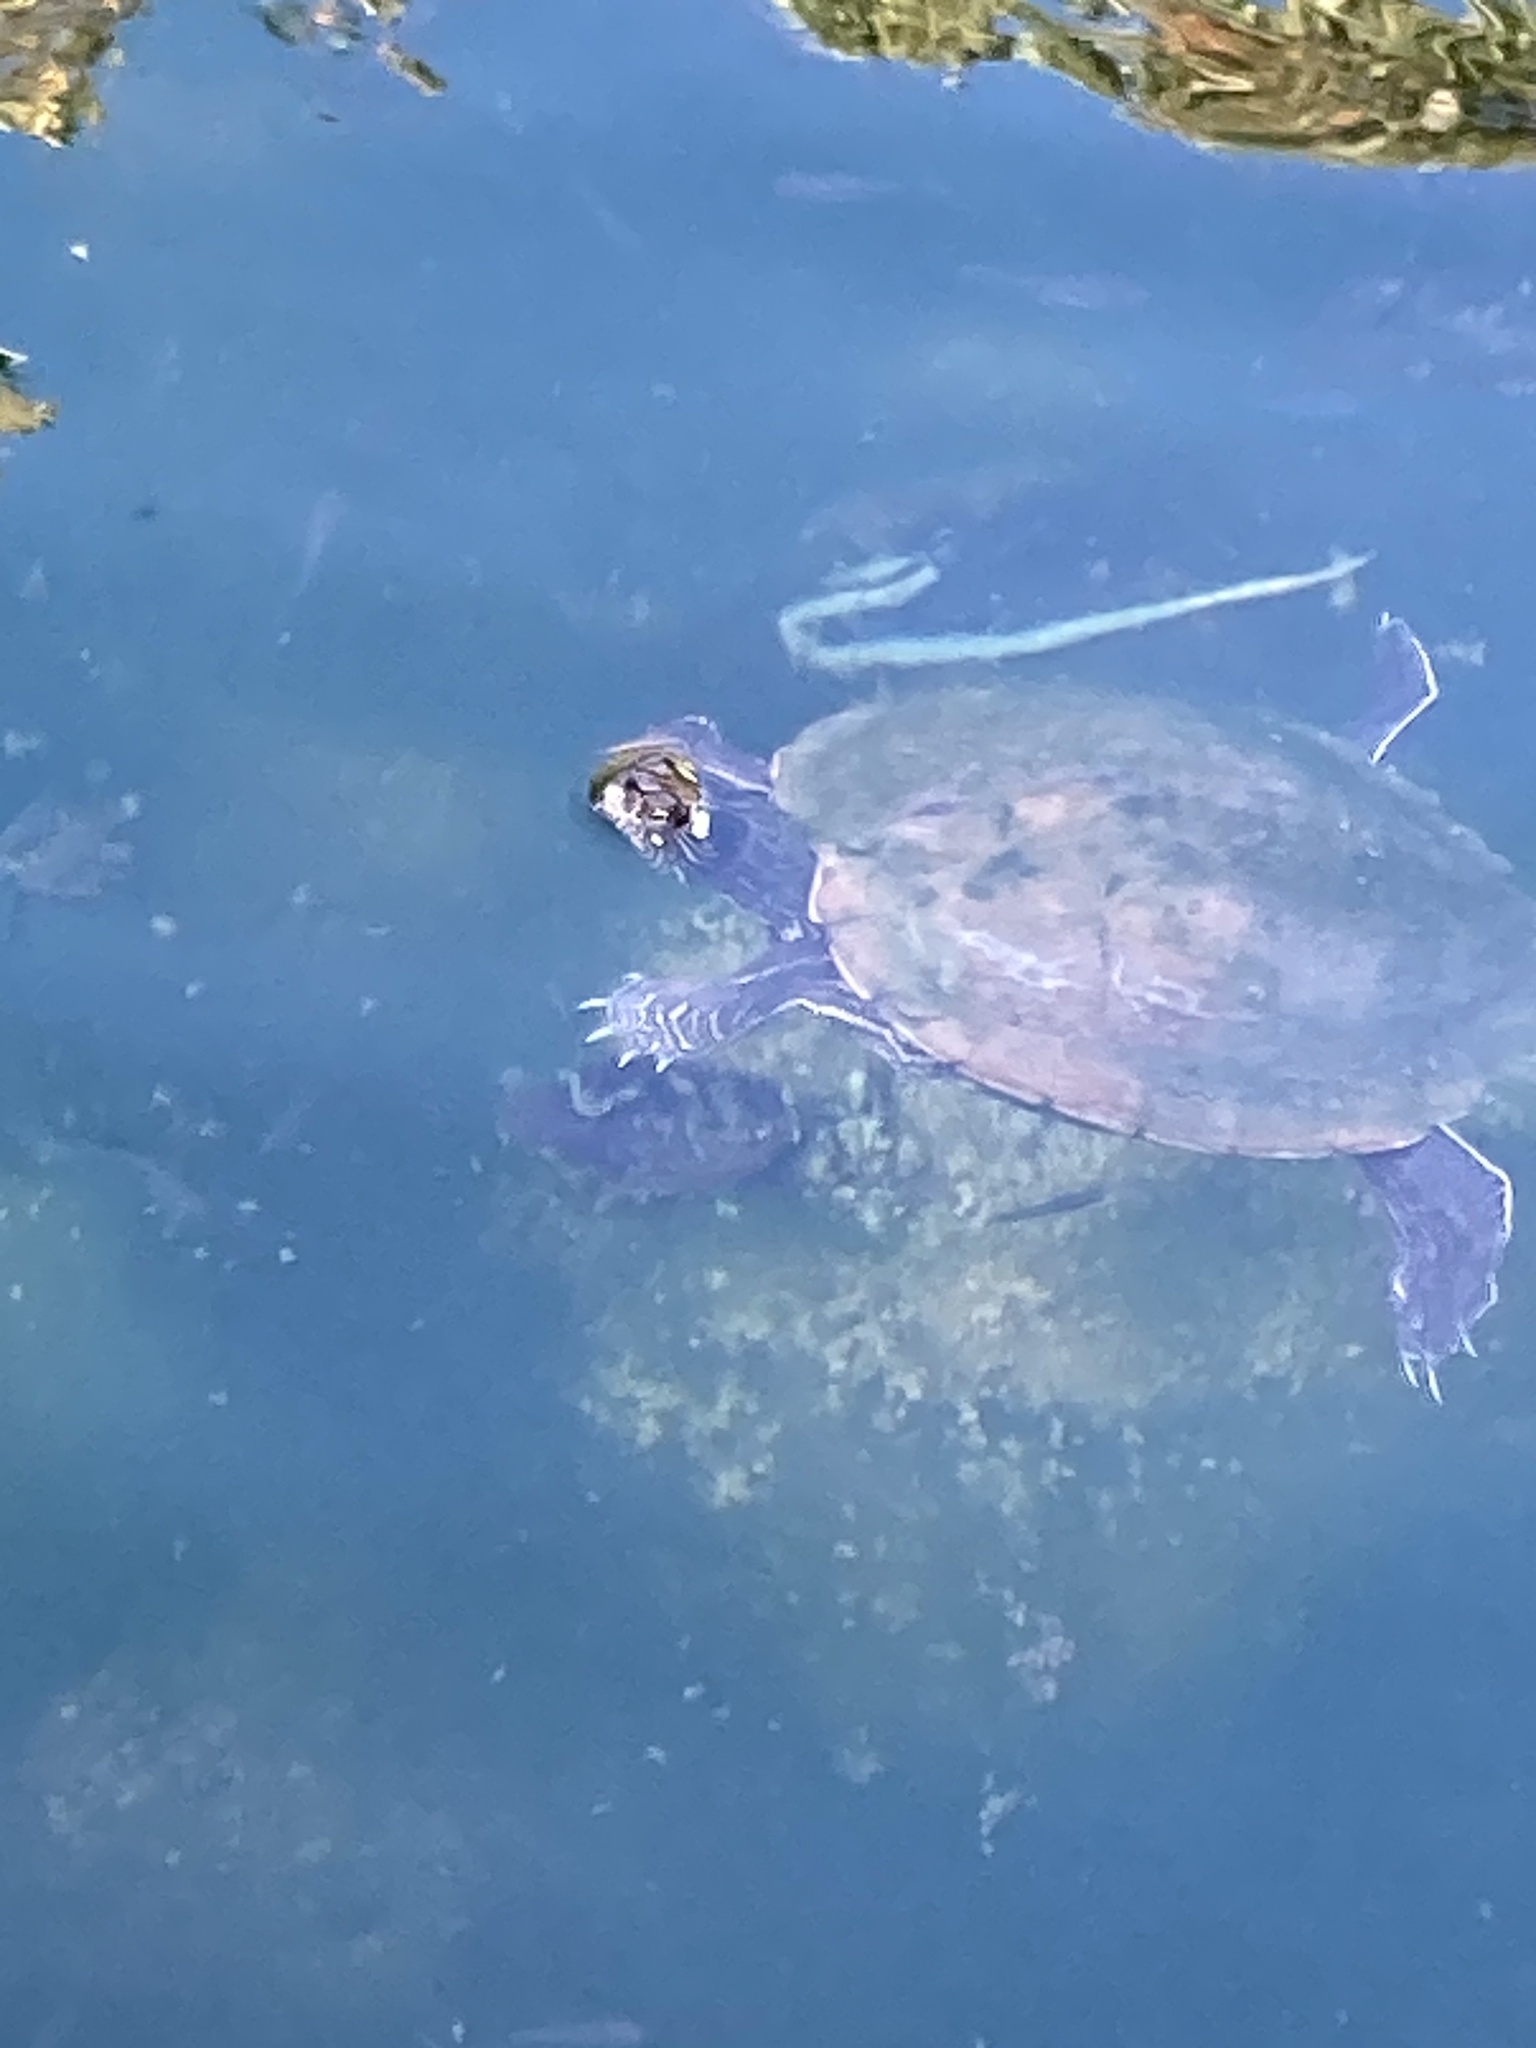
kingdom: Animalia
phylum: Chordata
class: Testudines
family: Emydidae
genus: Graptemys
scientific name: Graptemys ouachitensis
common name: Ouachita map turtle
